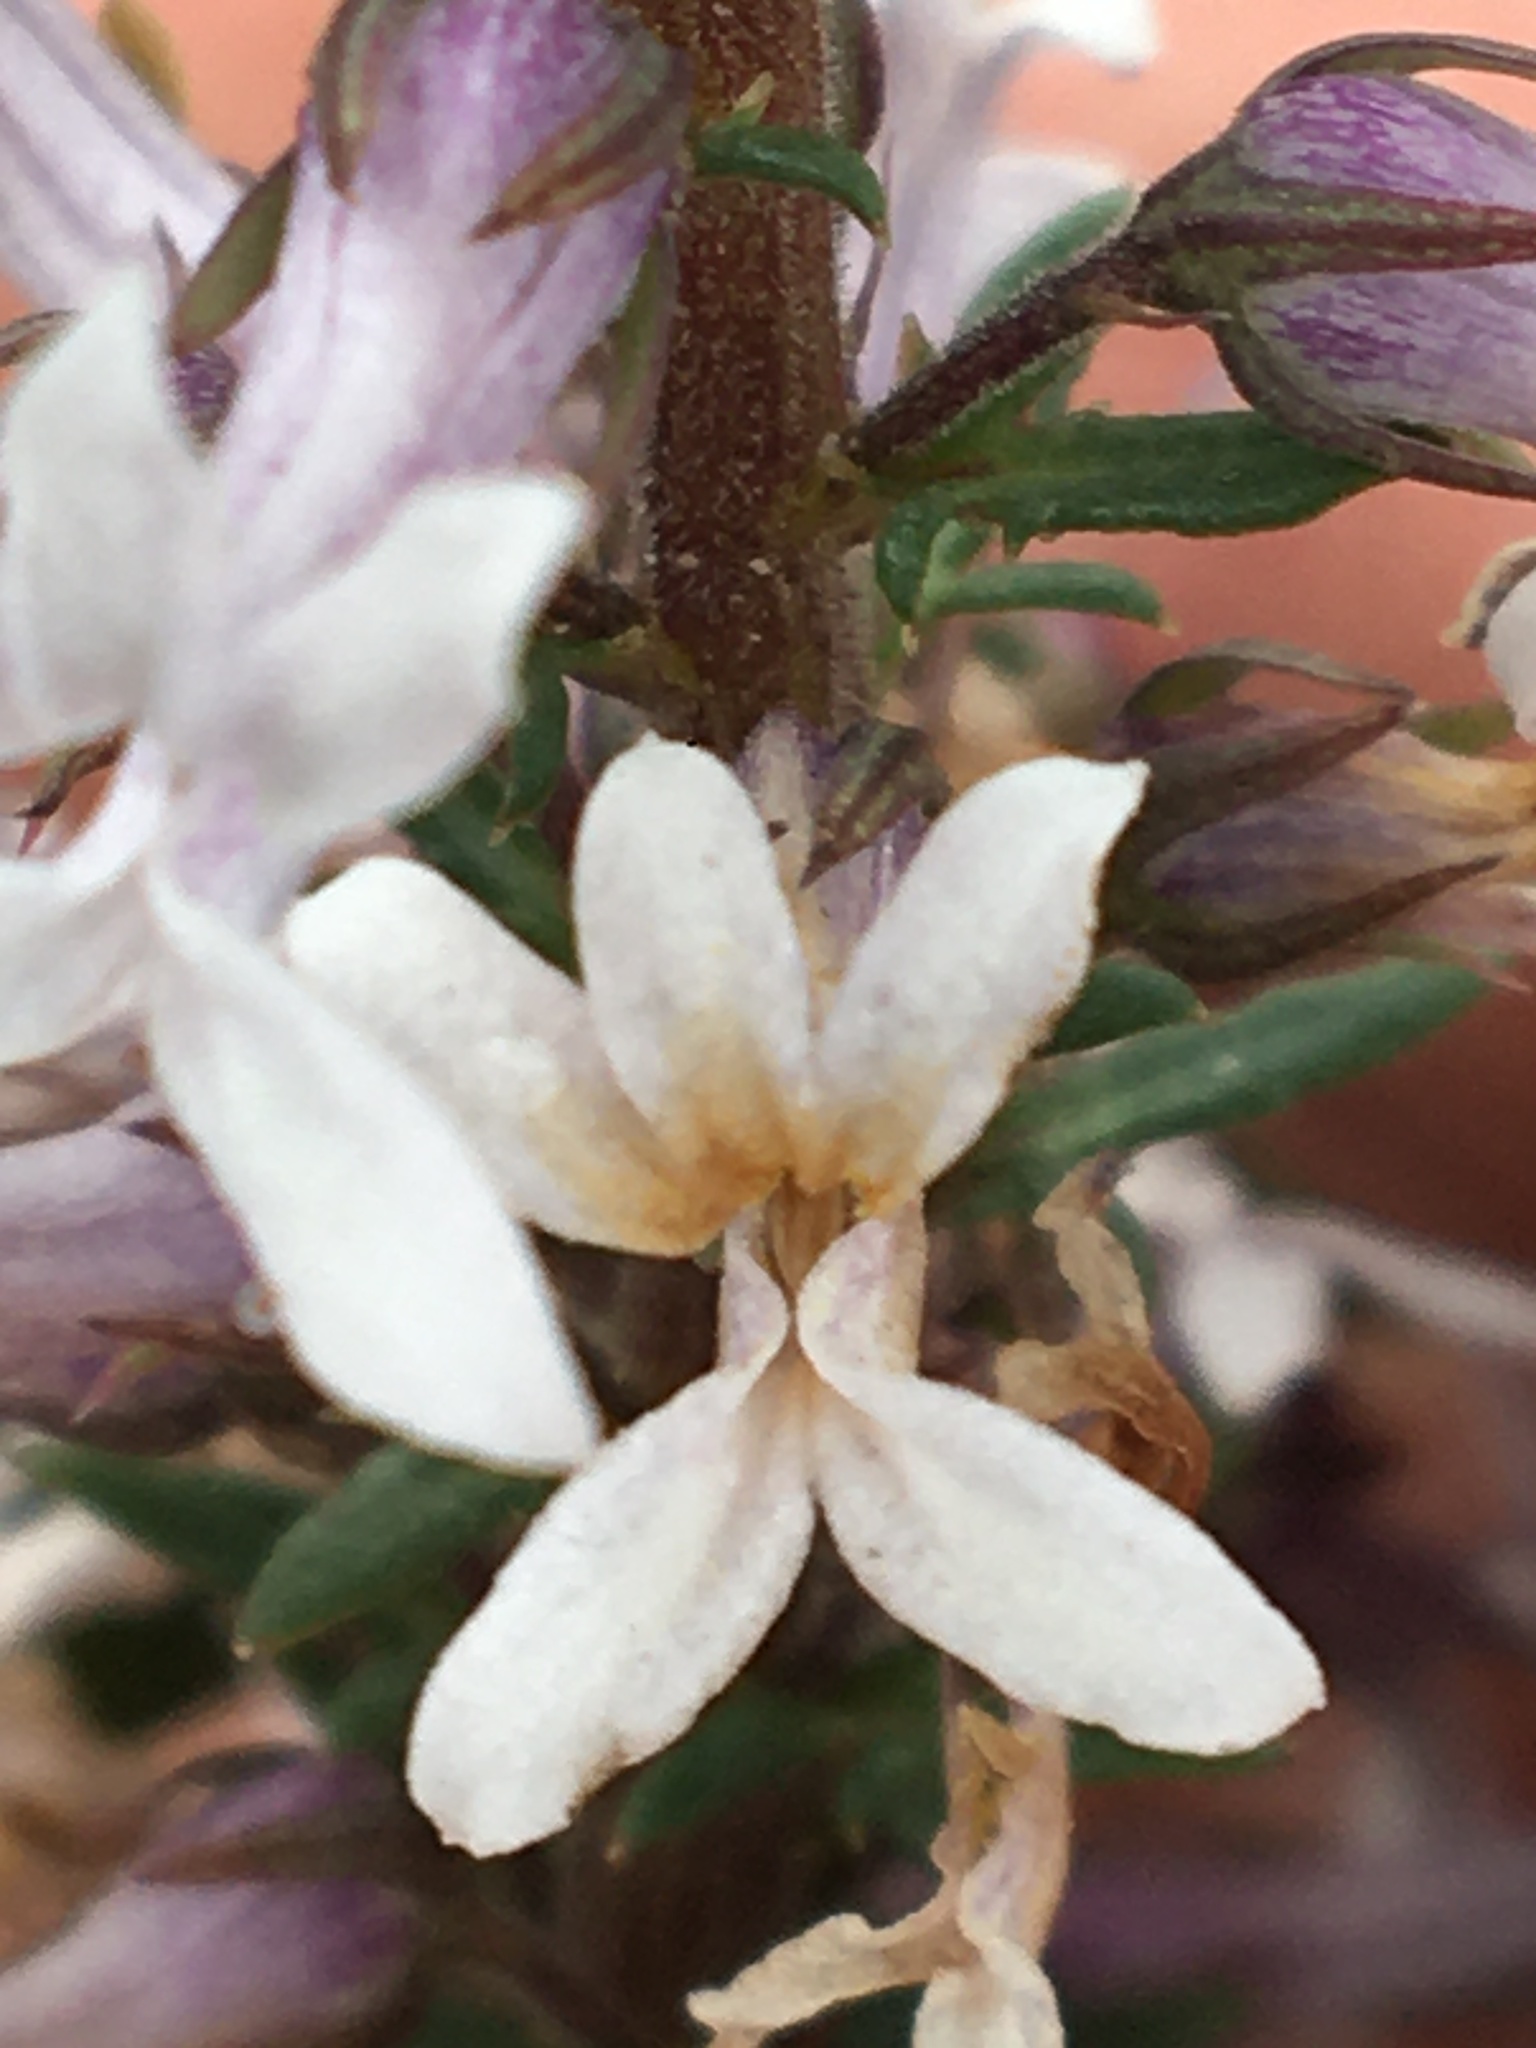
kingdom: Plantae
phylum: Tracheophyta
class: Magnoliopsida
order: Asterales
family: Campanulaceae
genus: Cyphia
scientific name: Cyphia bulbosa
